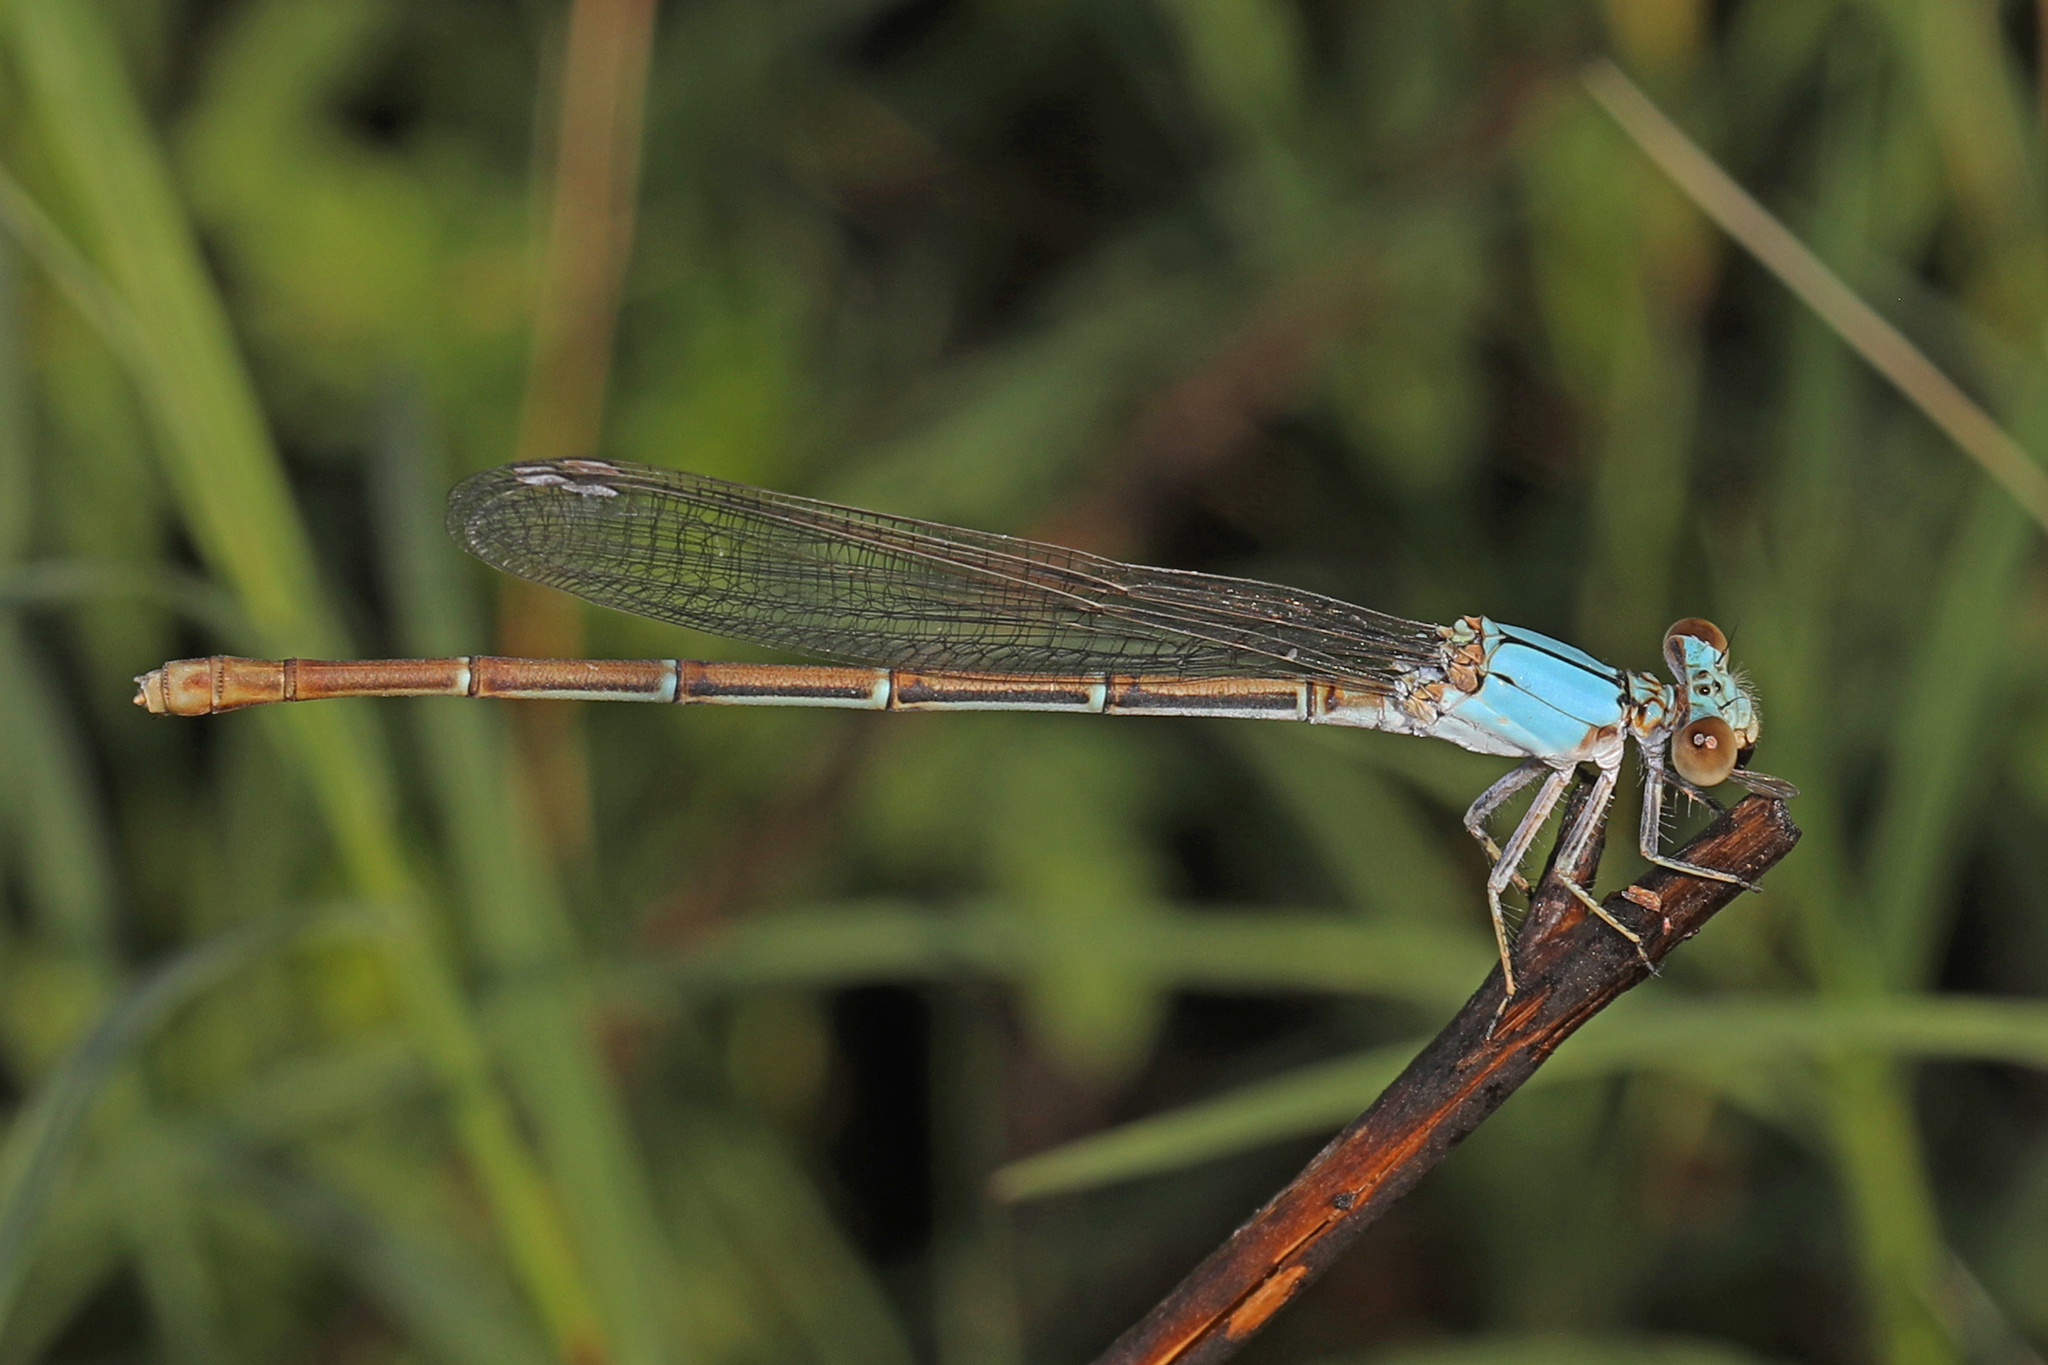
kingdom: Animalia
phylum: Arthropoda
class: Insecta
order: Odonata
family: Coenagrionidae
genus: Argia
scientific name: Argia moesta
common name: Powdered dancer
